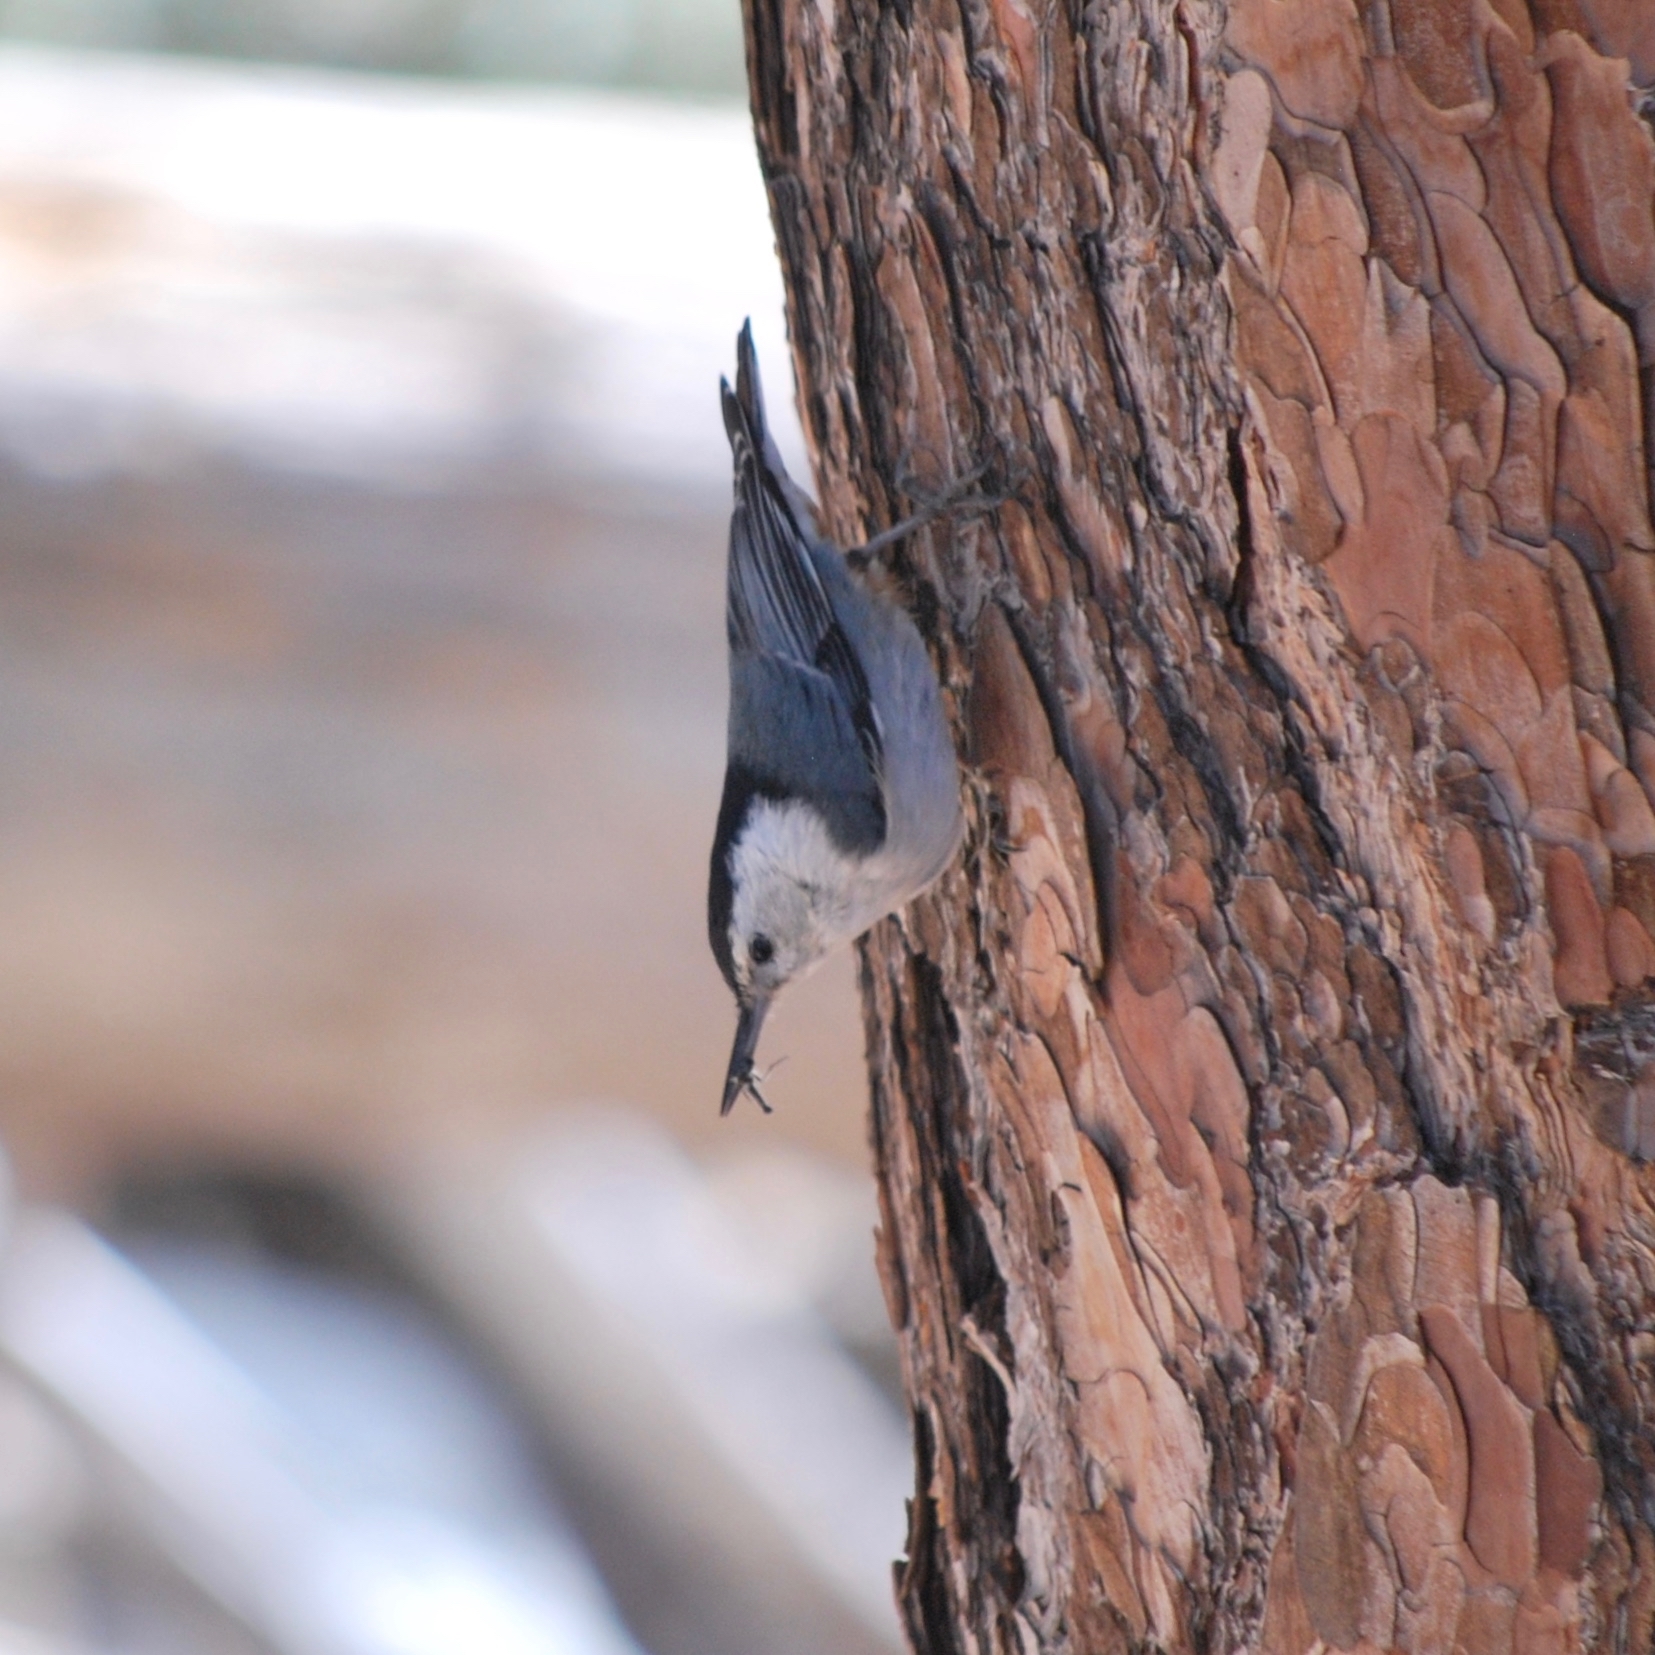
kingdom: Animalia
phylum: Chordata
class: Aves
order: Passeriformes
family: Sittidae
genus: Sitta
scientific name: Sitta carolinensis
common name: White-breasted nuthatch
